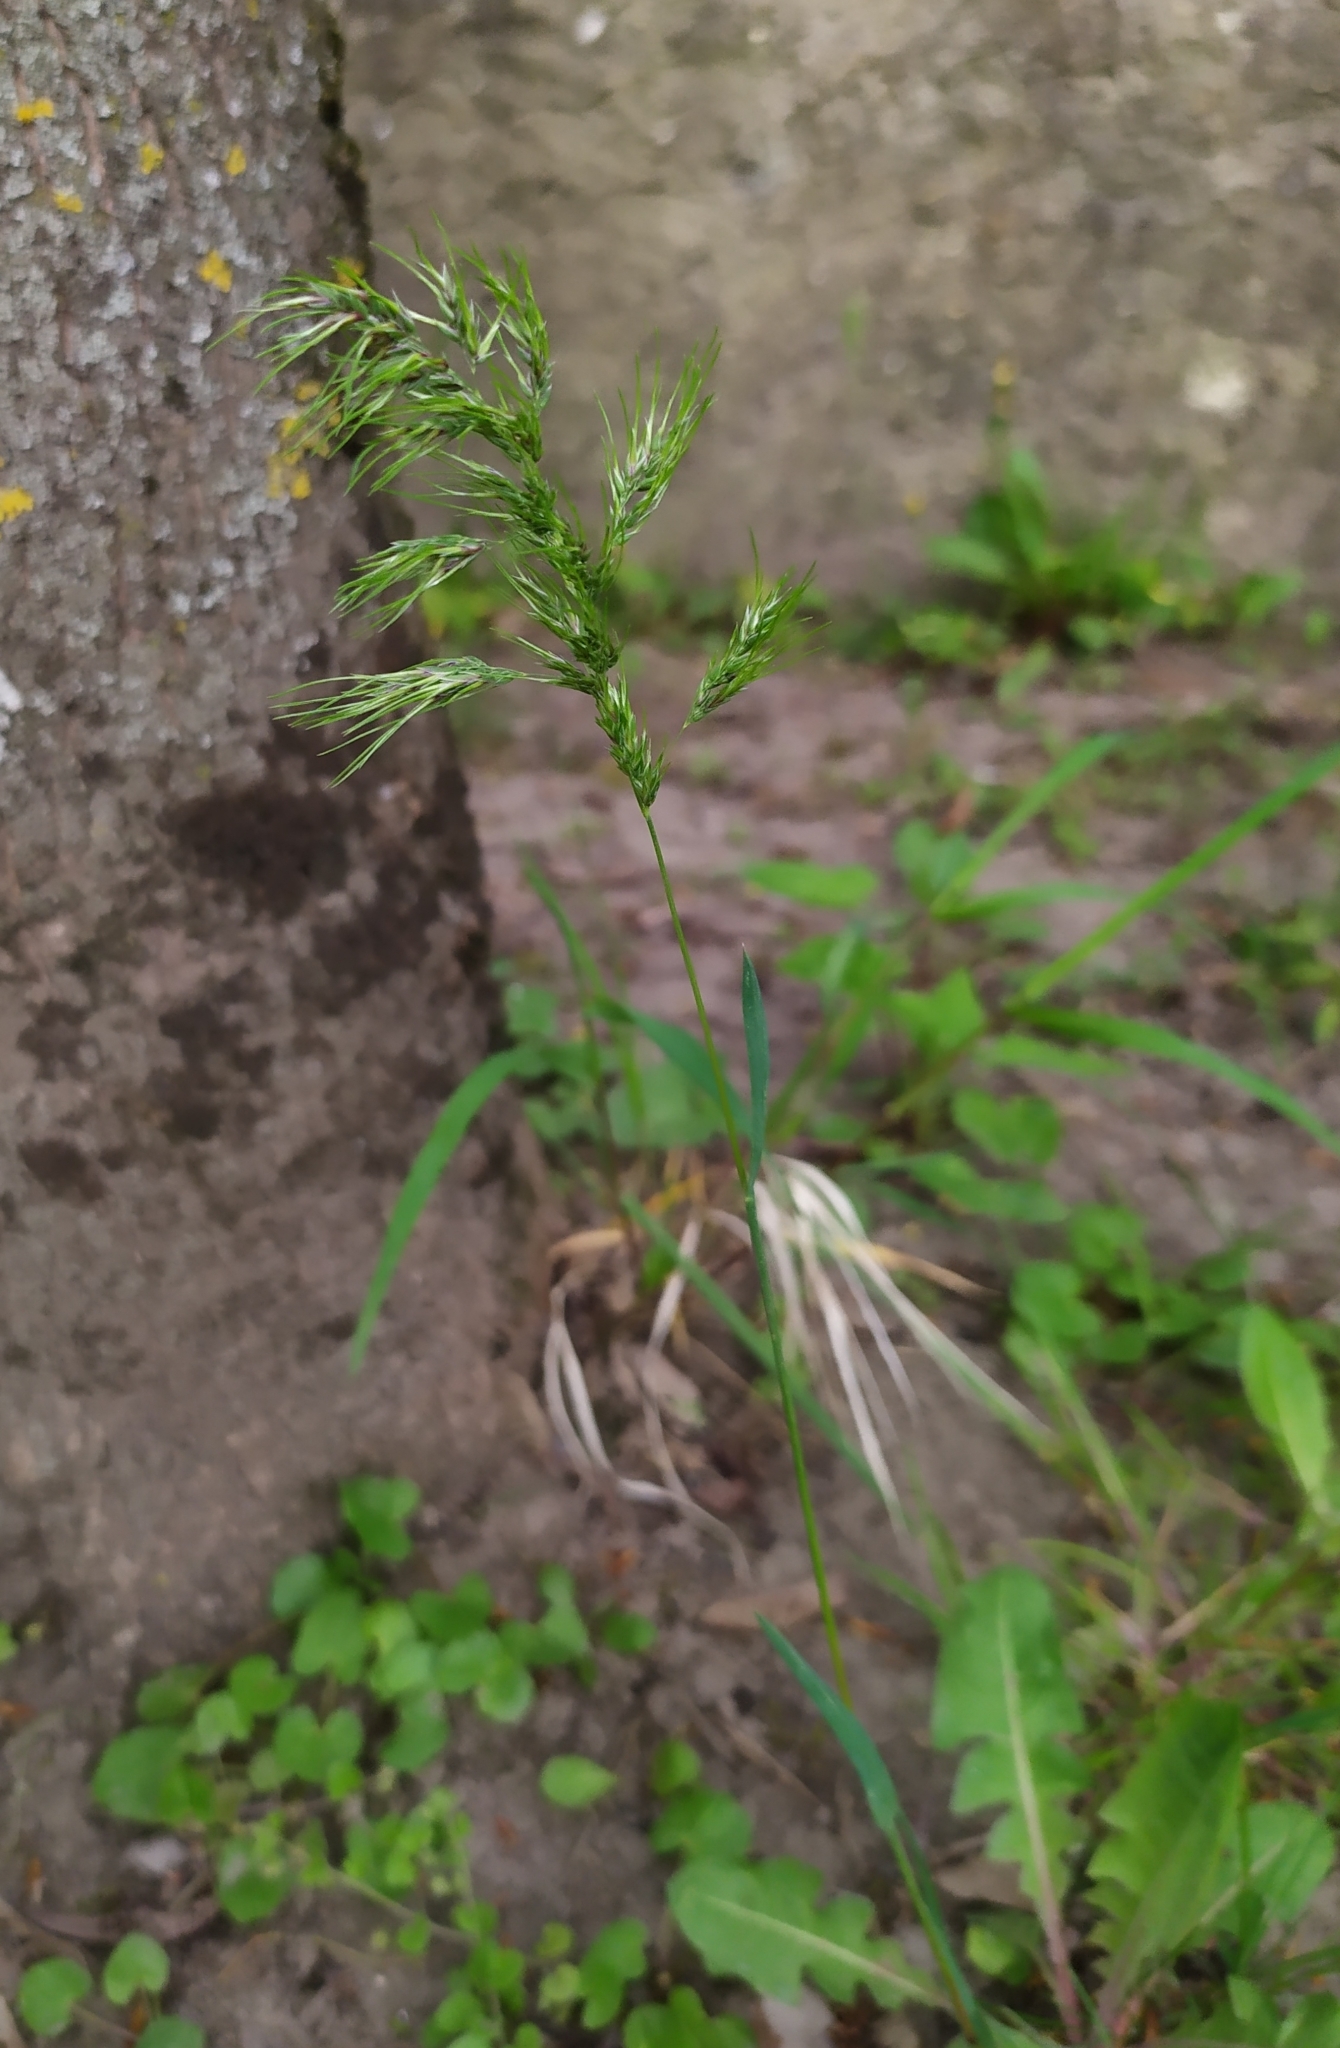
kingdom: Plantae
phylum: Tracheophyta
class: Liliopsida
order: Poales
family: Poaceae
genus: Poa
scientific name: Poa bulbosa
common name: Bulbous bluegrass
